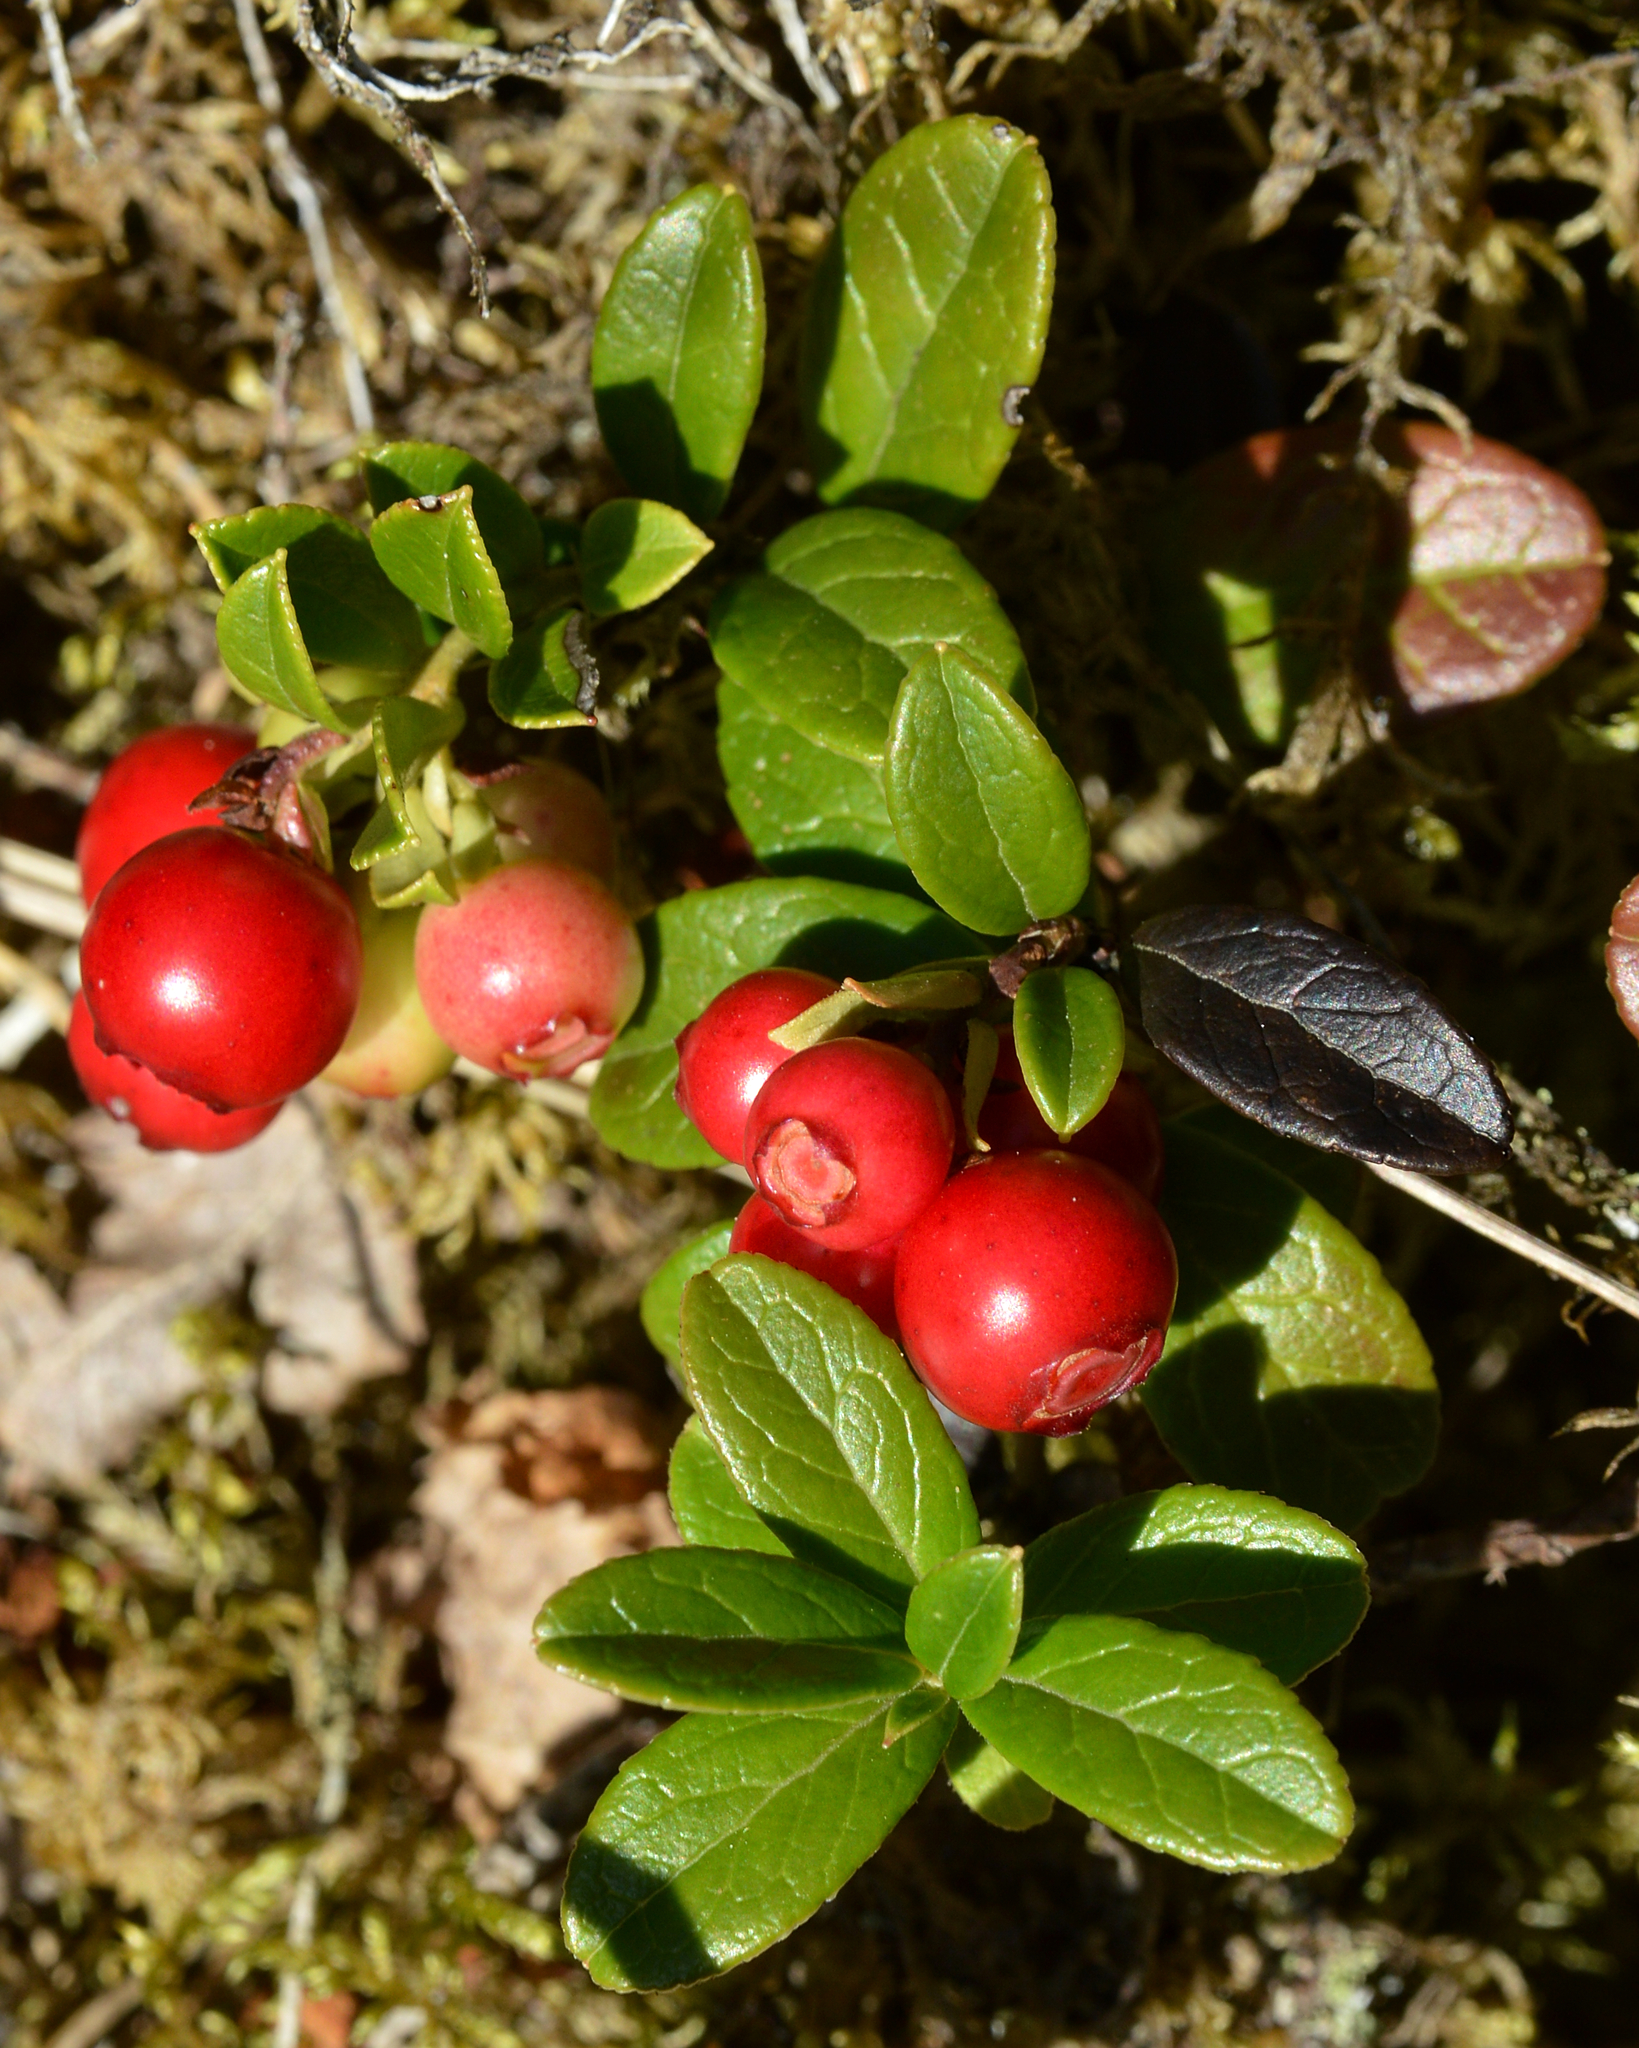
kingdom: Plantae
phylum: Tracheophyta
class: Magnoliopsida
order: Ericales
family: Ericaceae
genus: Vaccinium
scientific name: Vaccinium vitis-idaea
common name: Cowberry
